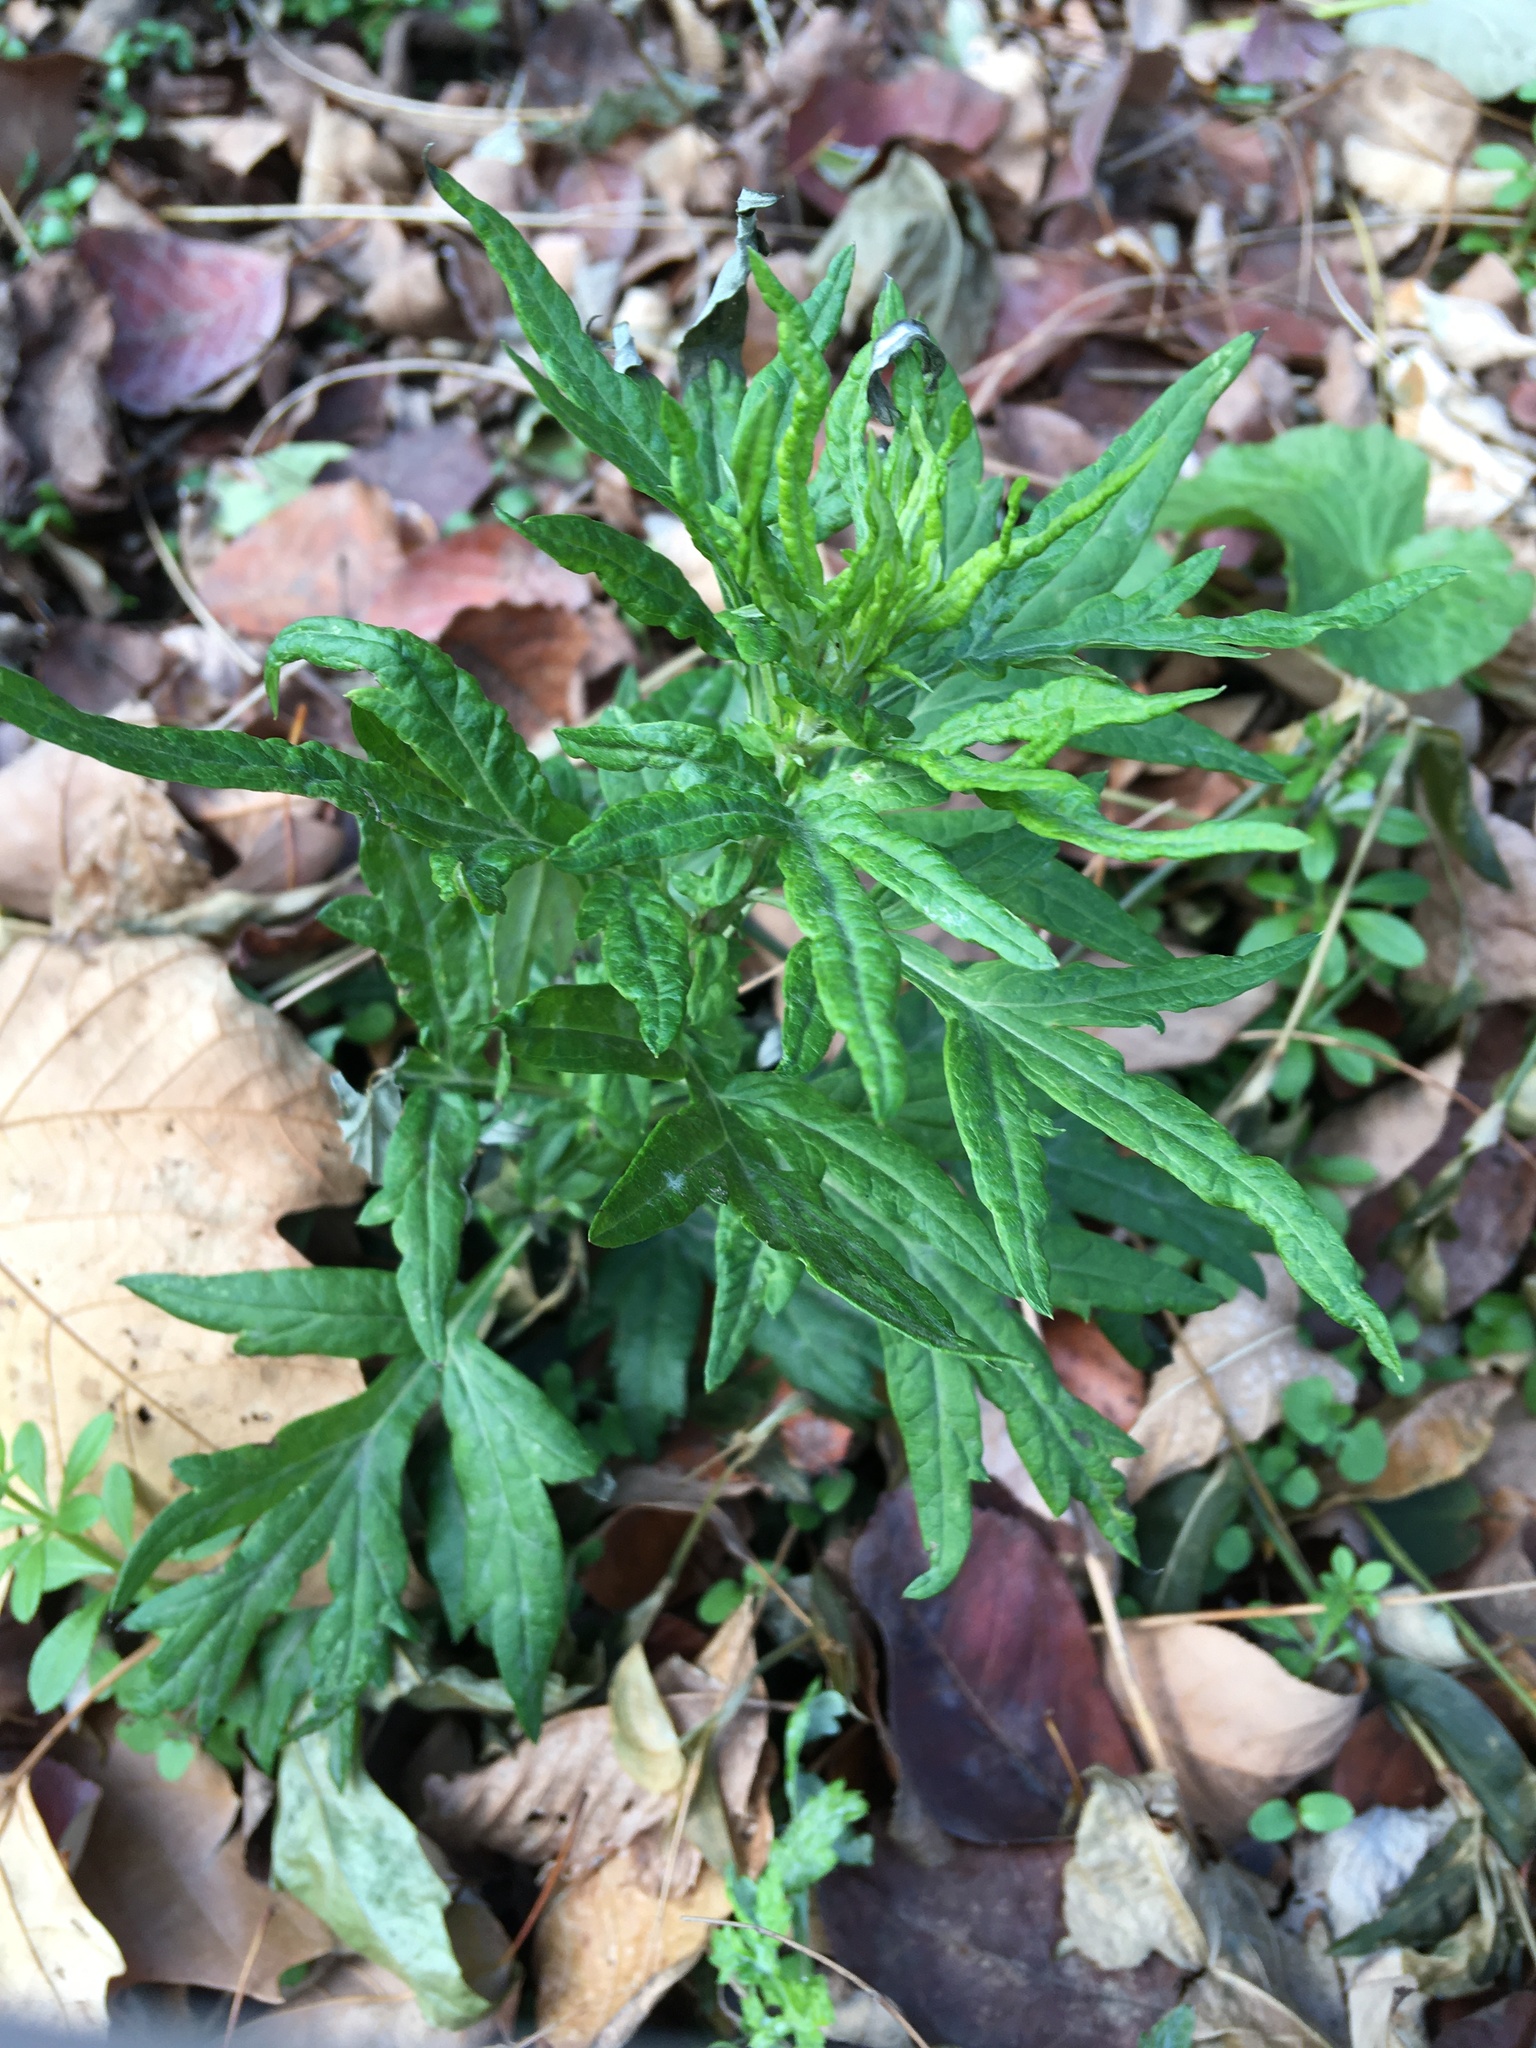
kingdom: Plantae
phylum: Tracheophyta
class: Magnoliopsida
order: Asterales
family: Asteraceae
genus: Artemisia
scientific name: Artemisia vulgaris
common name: Mugwort
